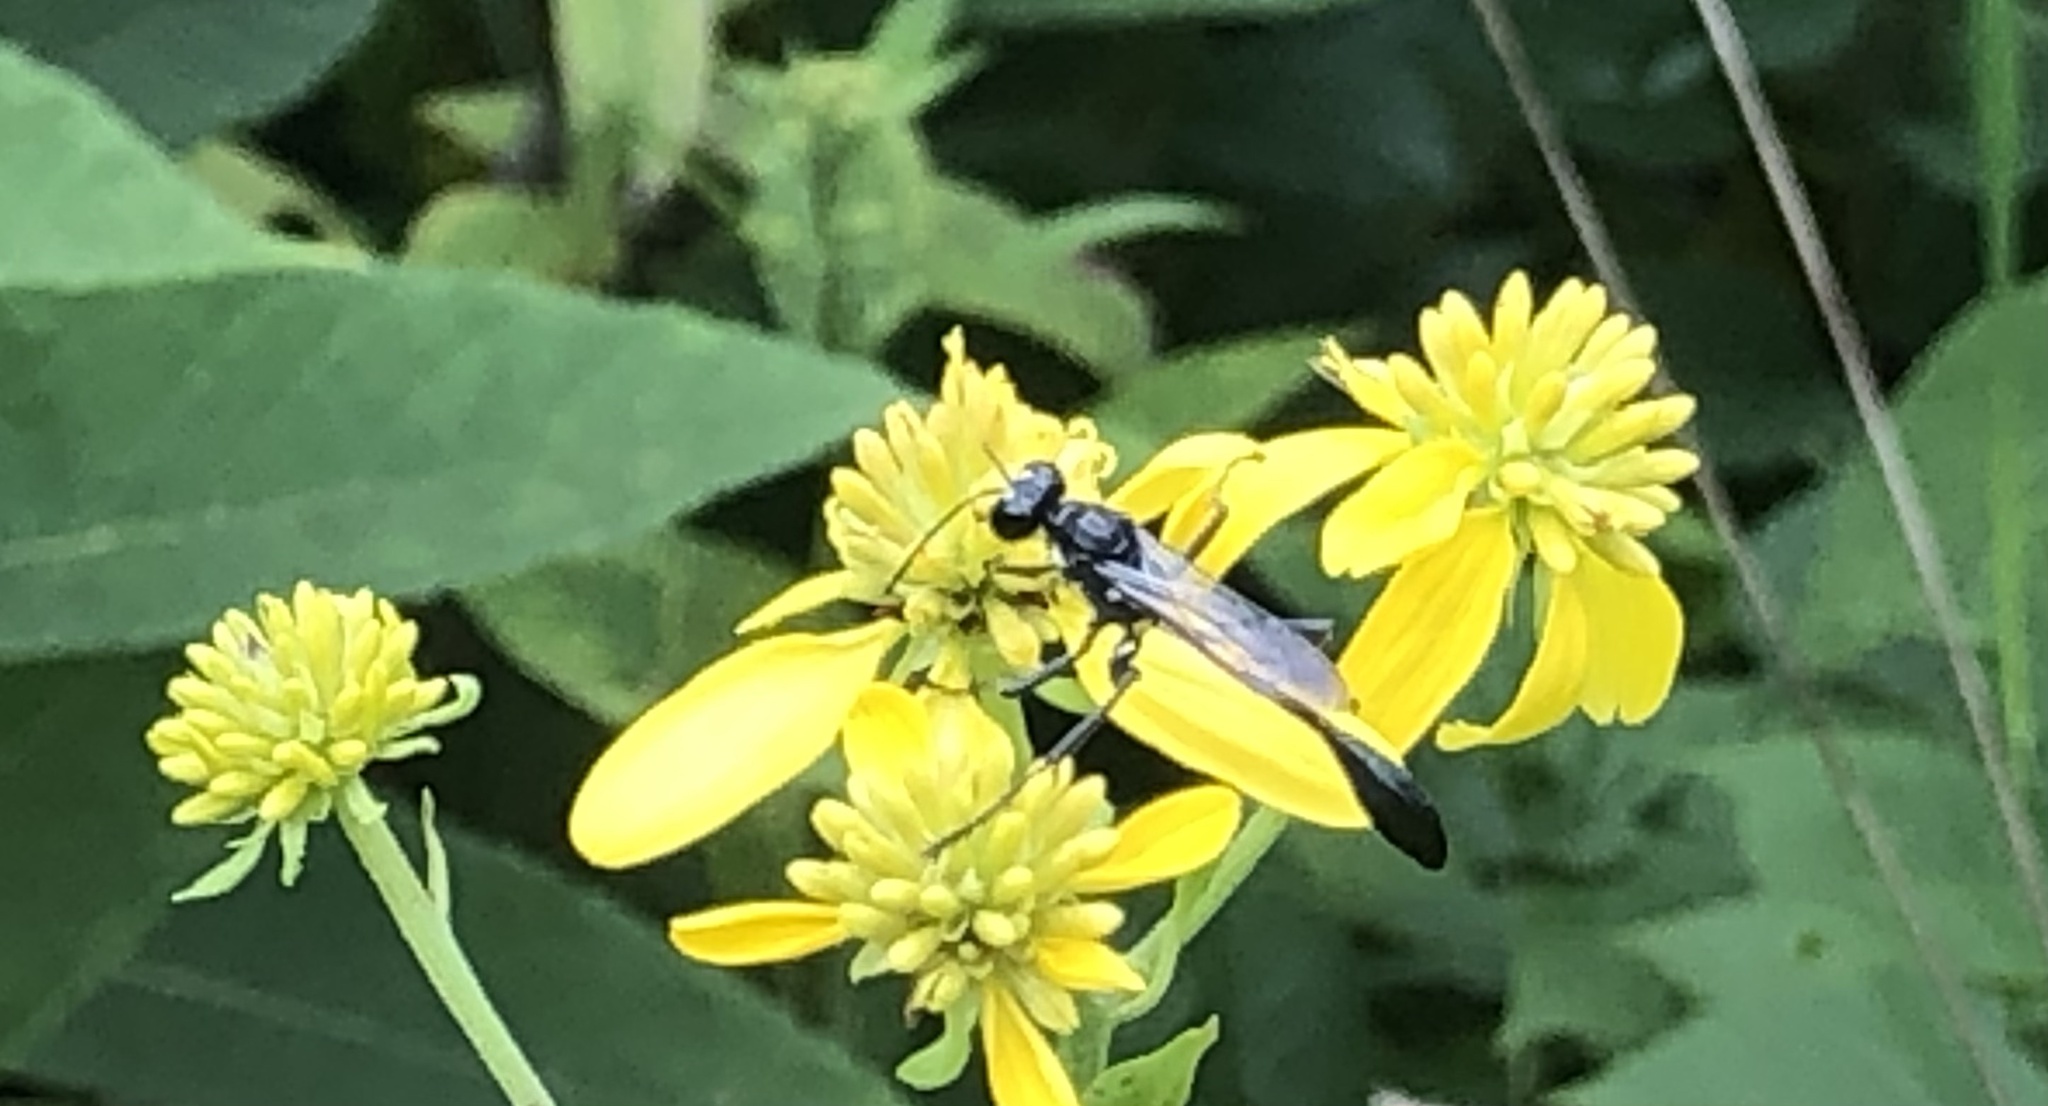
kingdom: Animalia
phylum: Arthropoda
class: Insecta
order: Hymenoptera
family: Sphecidae
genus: Eremnophila
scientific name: Eremnophila aureonotata
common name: Gold-marked thread-waisted wasp
